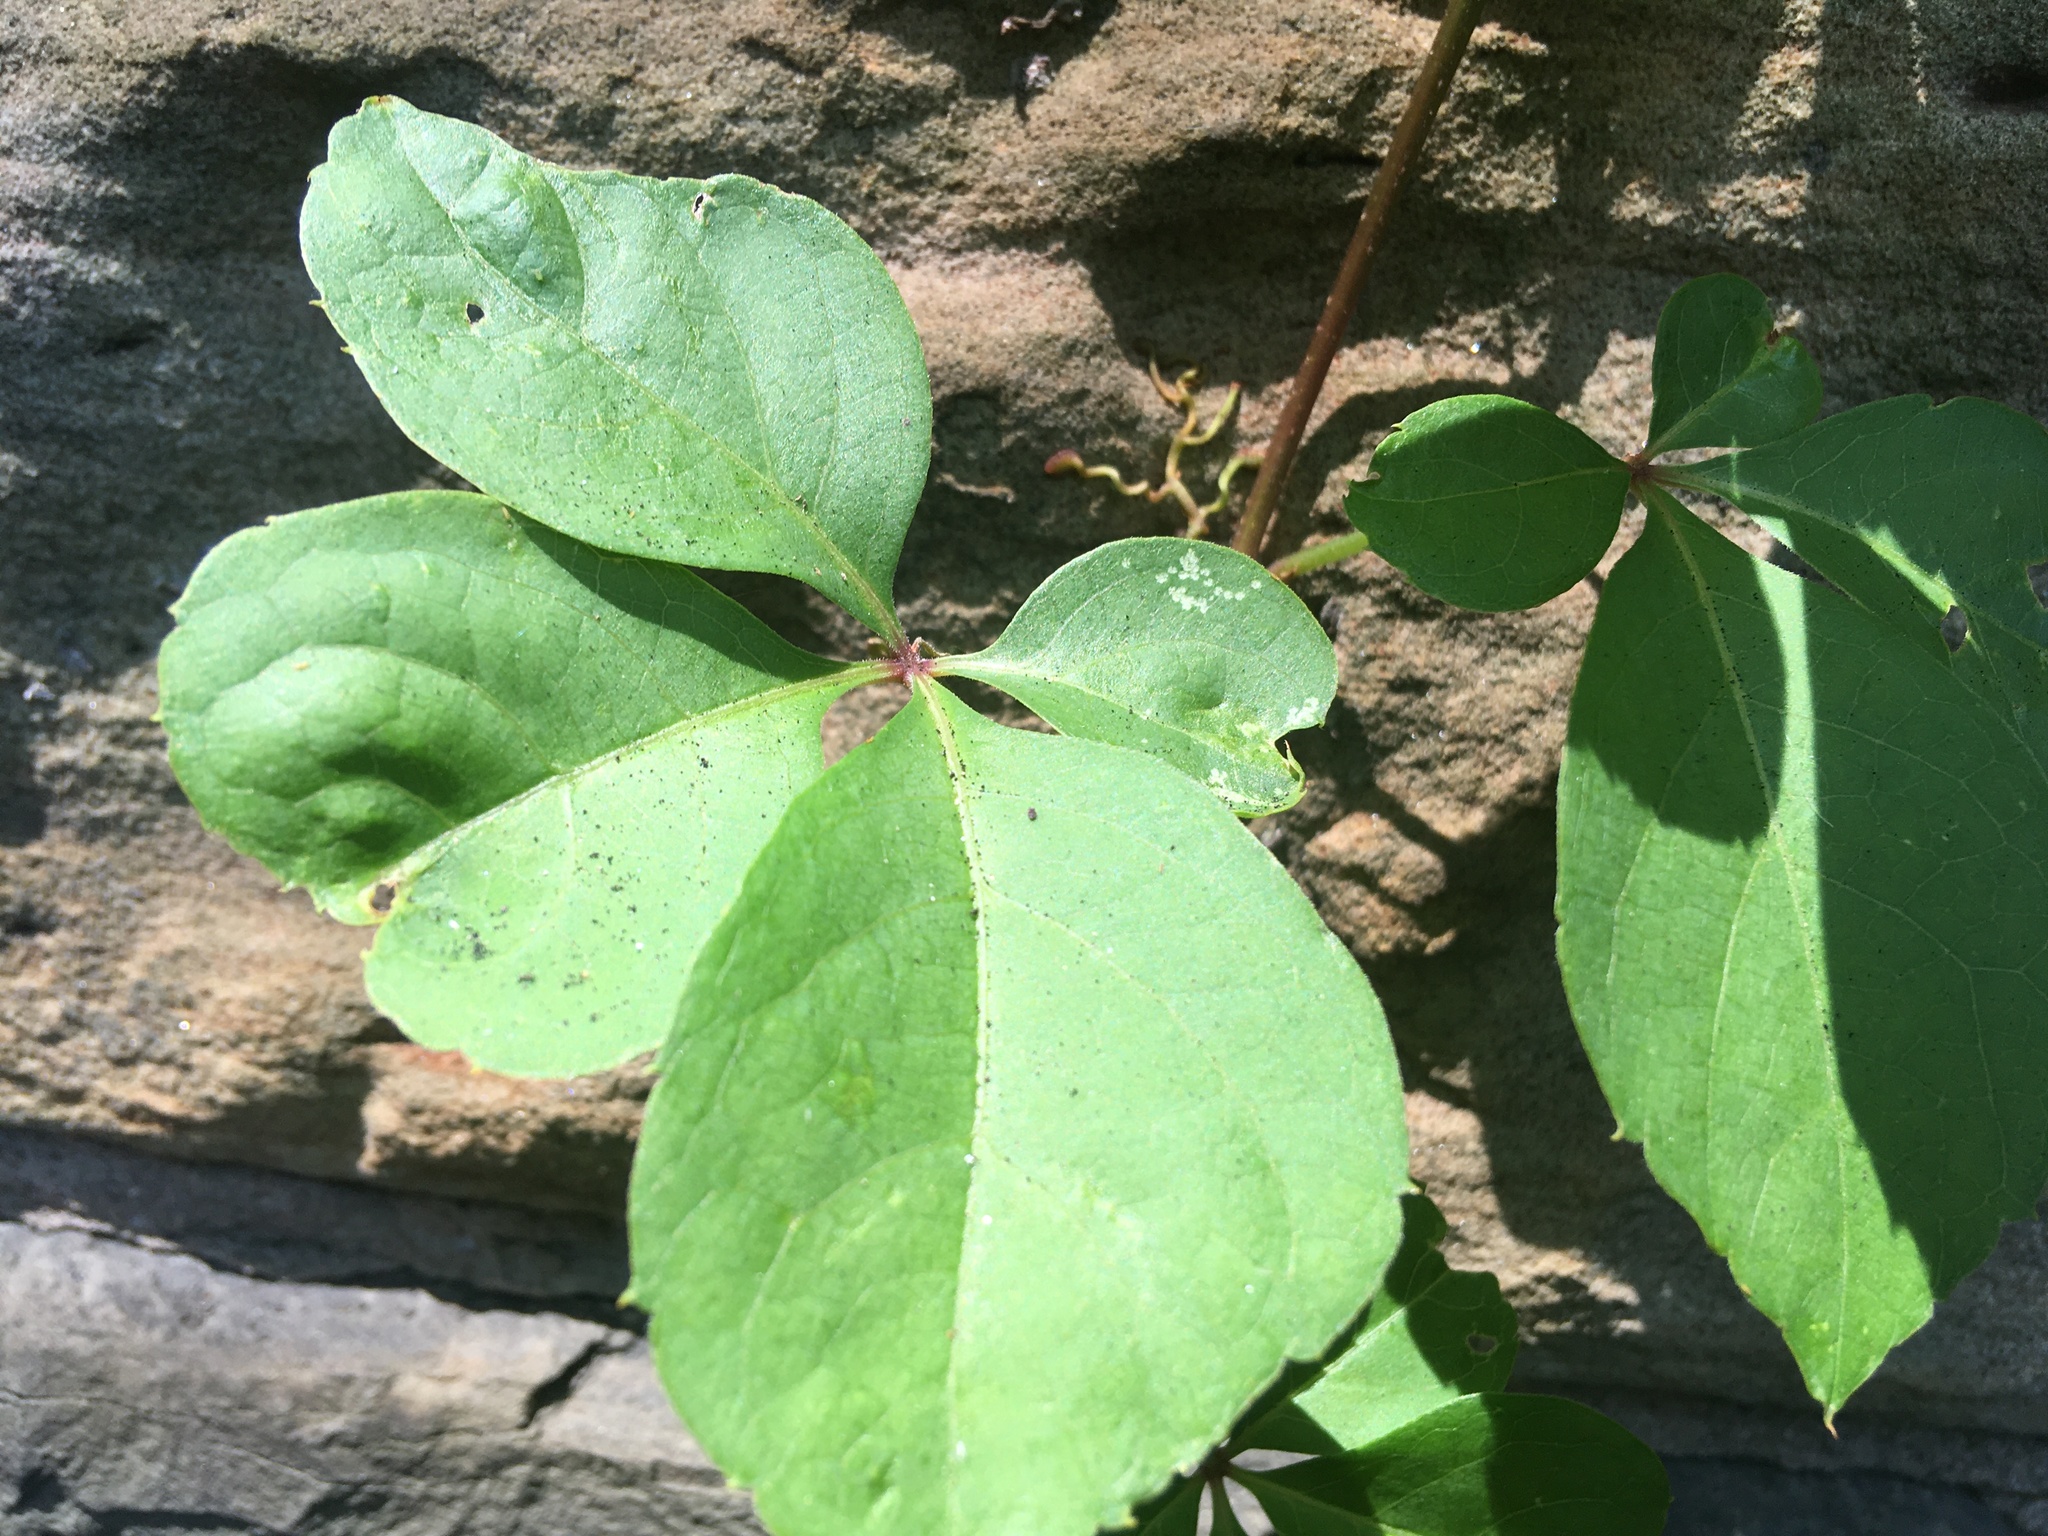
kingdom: Plantae
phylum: Tracheophyta
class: Magnoliopsida
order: Vitales
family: Vitaceae
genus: Parthenocissus
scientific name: Parthenocissus quinquefolia
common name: Virginia-creeper
